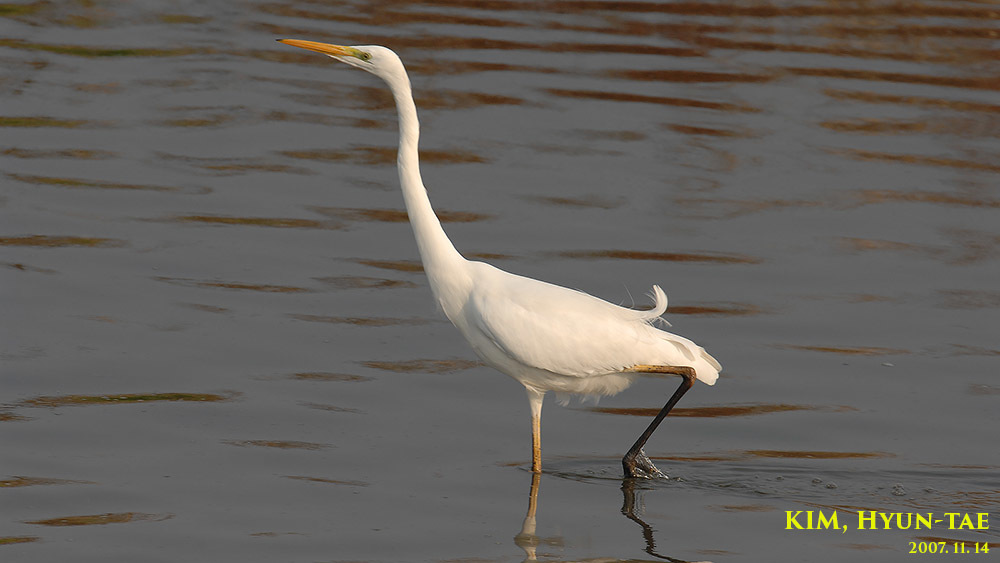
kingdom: Animalia
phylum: Chordata
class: Aves
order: Pelecaniformes
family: Ardeidae
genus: Ardea
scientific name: Ardea alba
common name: Great egret
